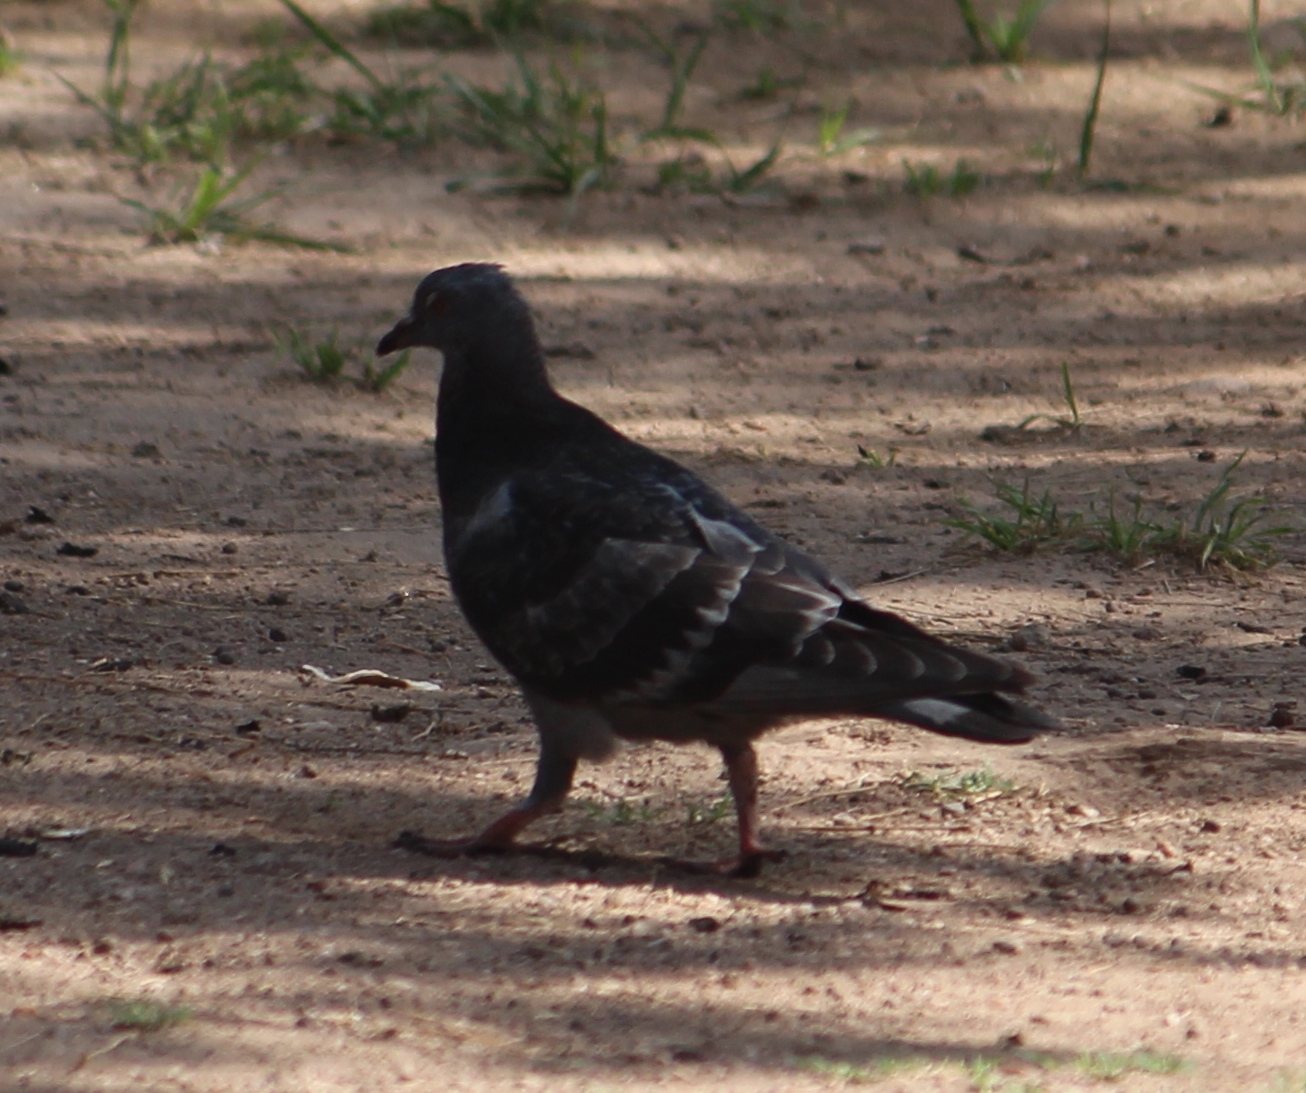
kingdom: Animalia
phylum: Chordata
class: Aves
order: Columbiformes
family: Columbidae
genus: Columba
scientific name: Columba livia
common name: Rock pigeon
